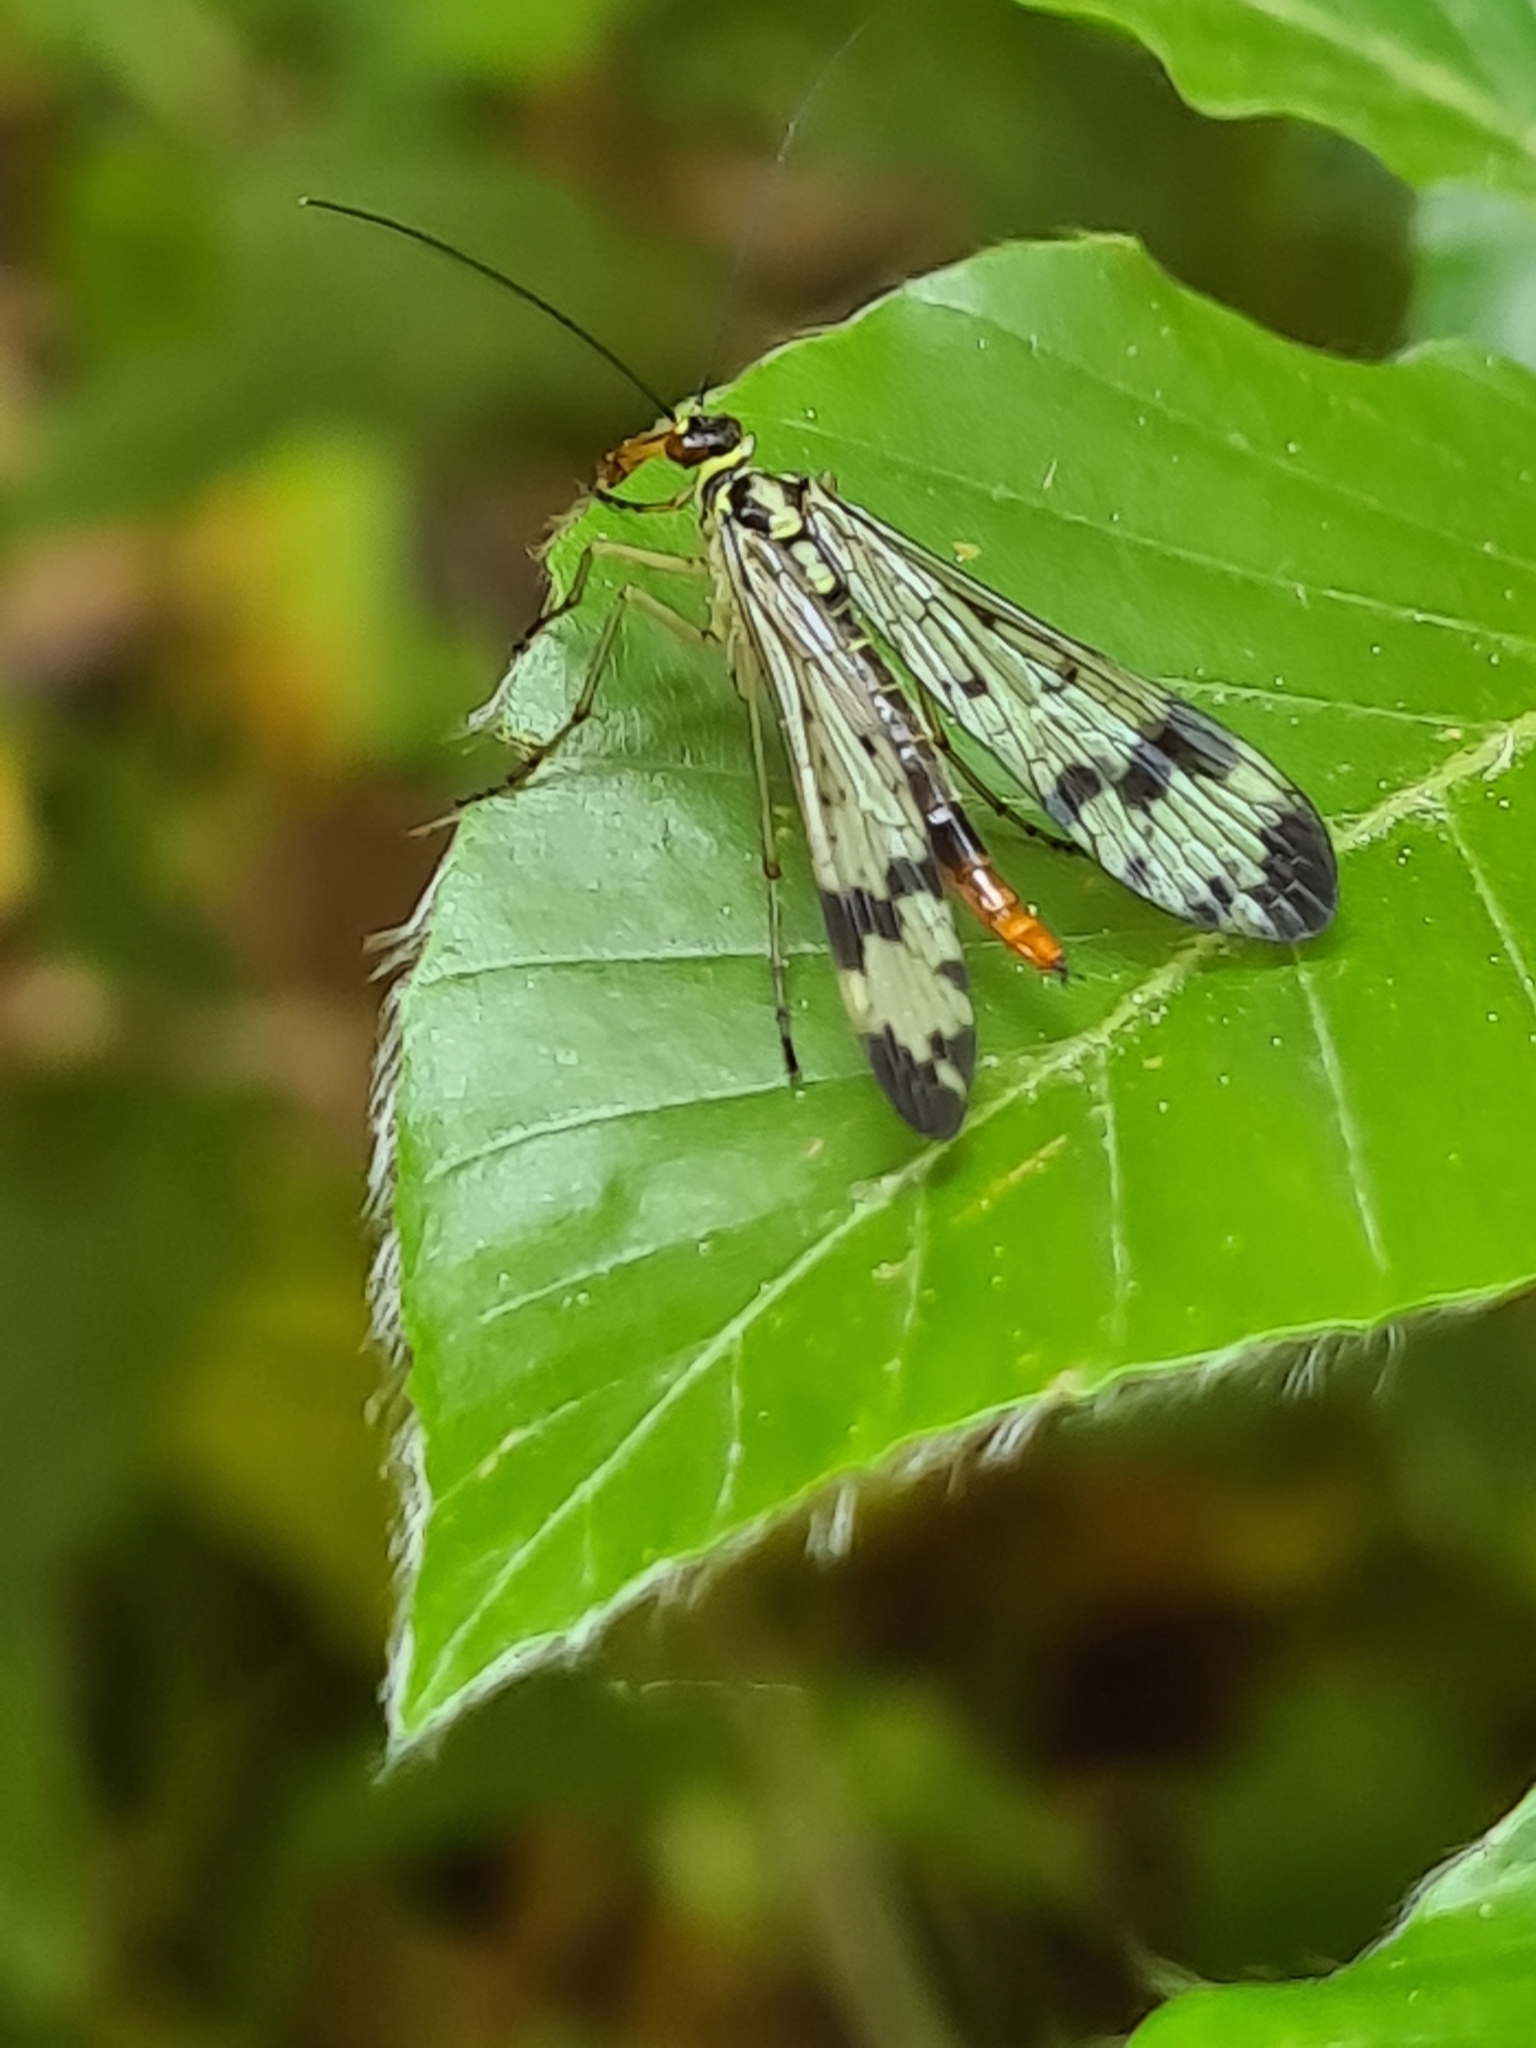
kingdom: Animalia
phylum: Arthropoda
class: Insecta
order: Mecoptera
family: Panorpidae
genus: Panorpa
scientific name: Panorpa communis
